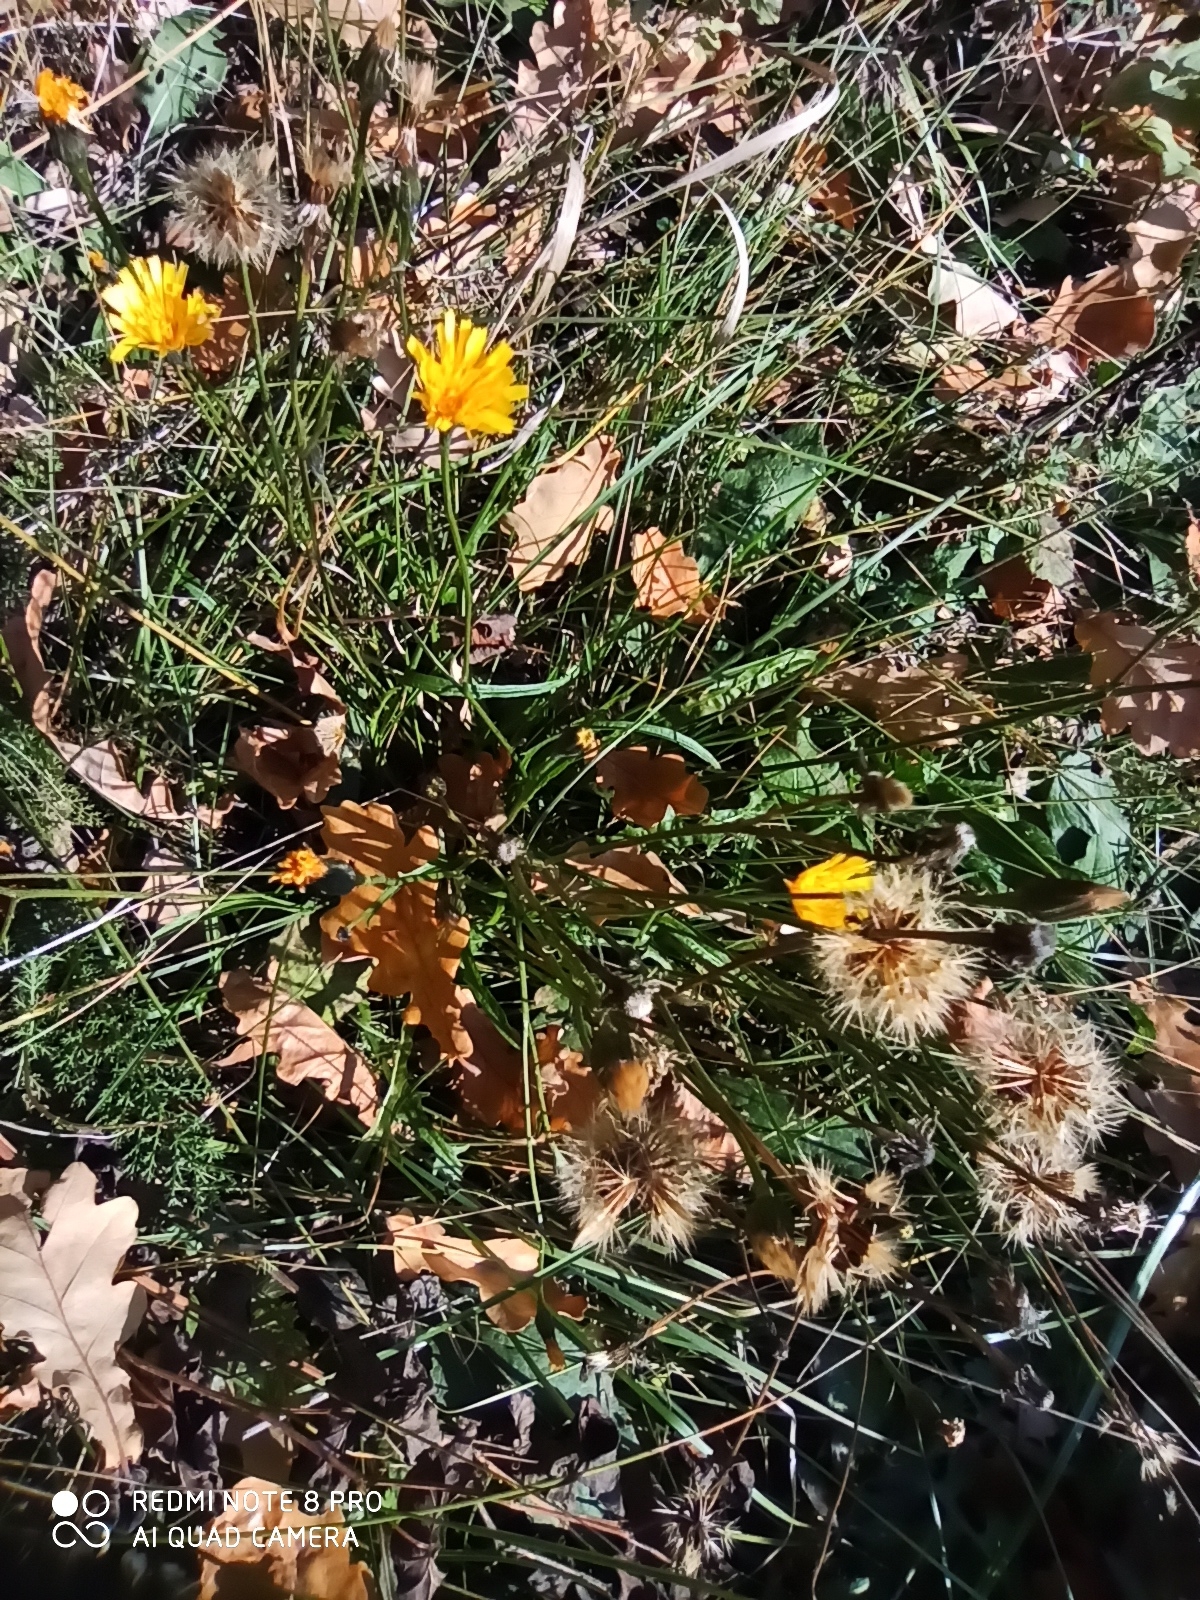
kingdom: Plantae
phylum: Tracheophyta
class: Magnoliopsida
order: Asterales
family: Asteraceae
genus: Scorzoneroides
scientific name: Scorzoneroides autumnalis
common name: Autumn hawkbit
